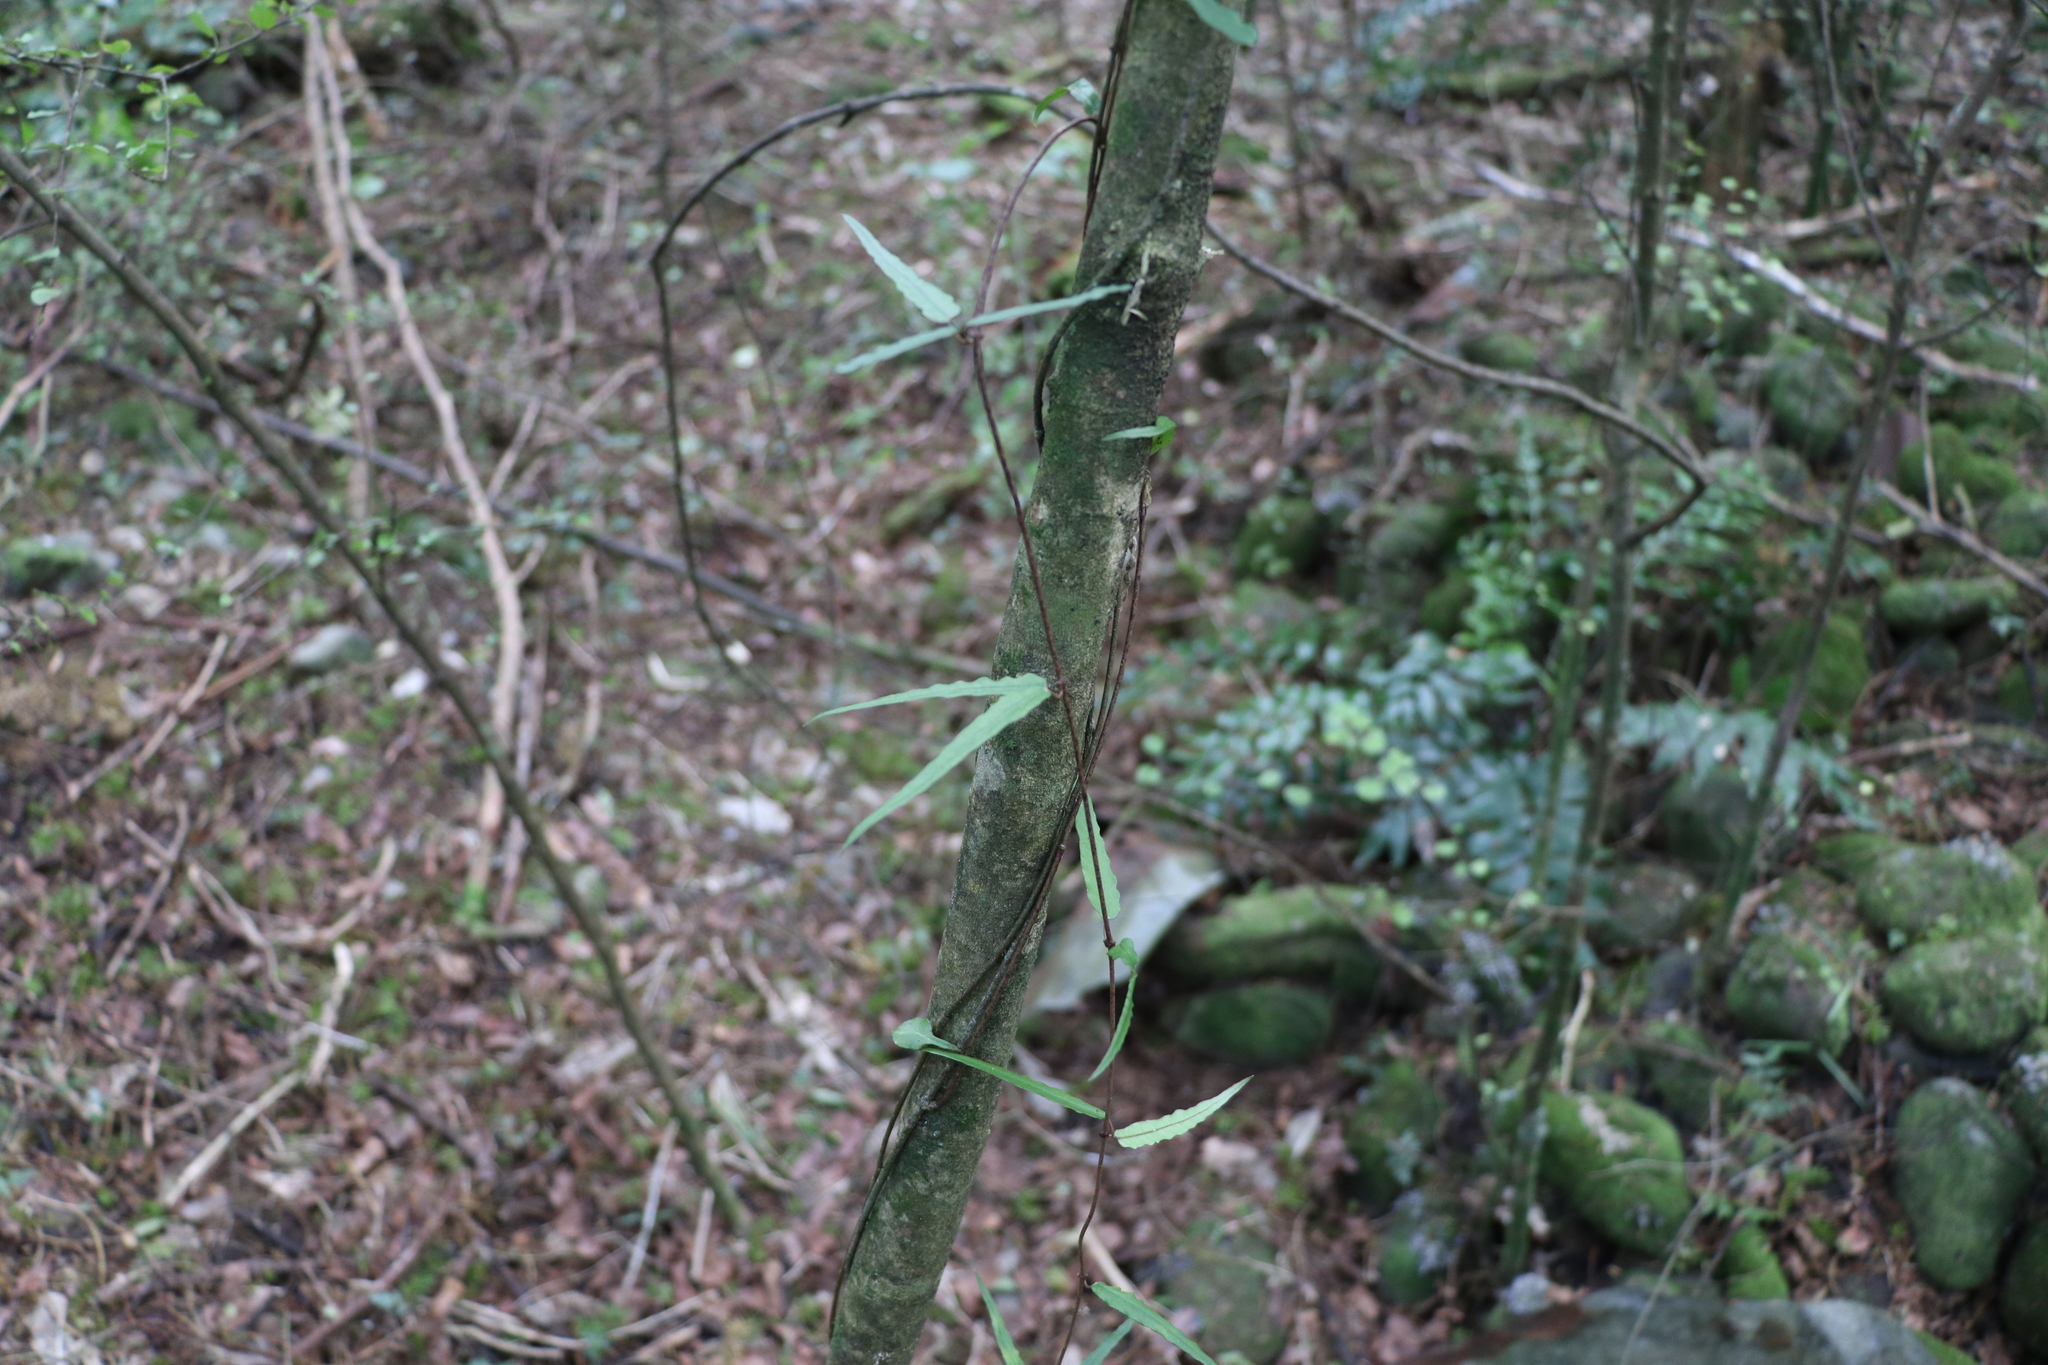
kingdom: Plantae
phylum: Tracheophyta
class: Magnoliopsida
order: Gentianales
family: Apocynaceae
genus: Parsonsia
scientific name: Parsonsia heterophylla
